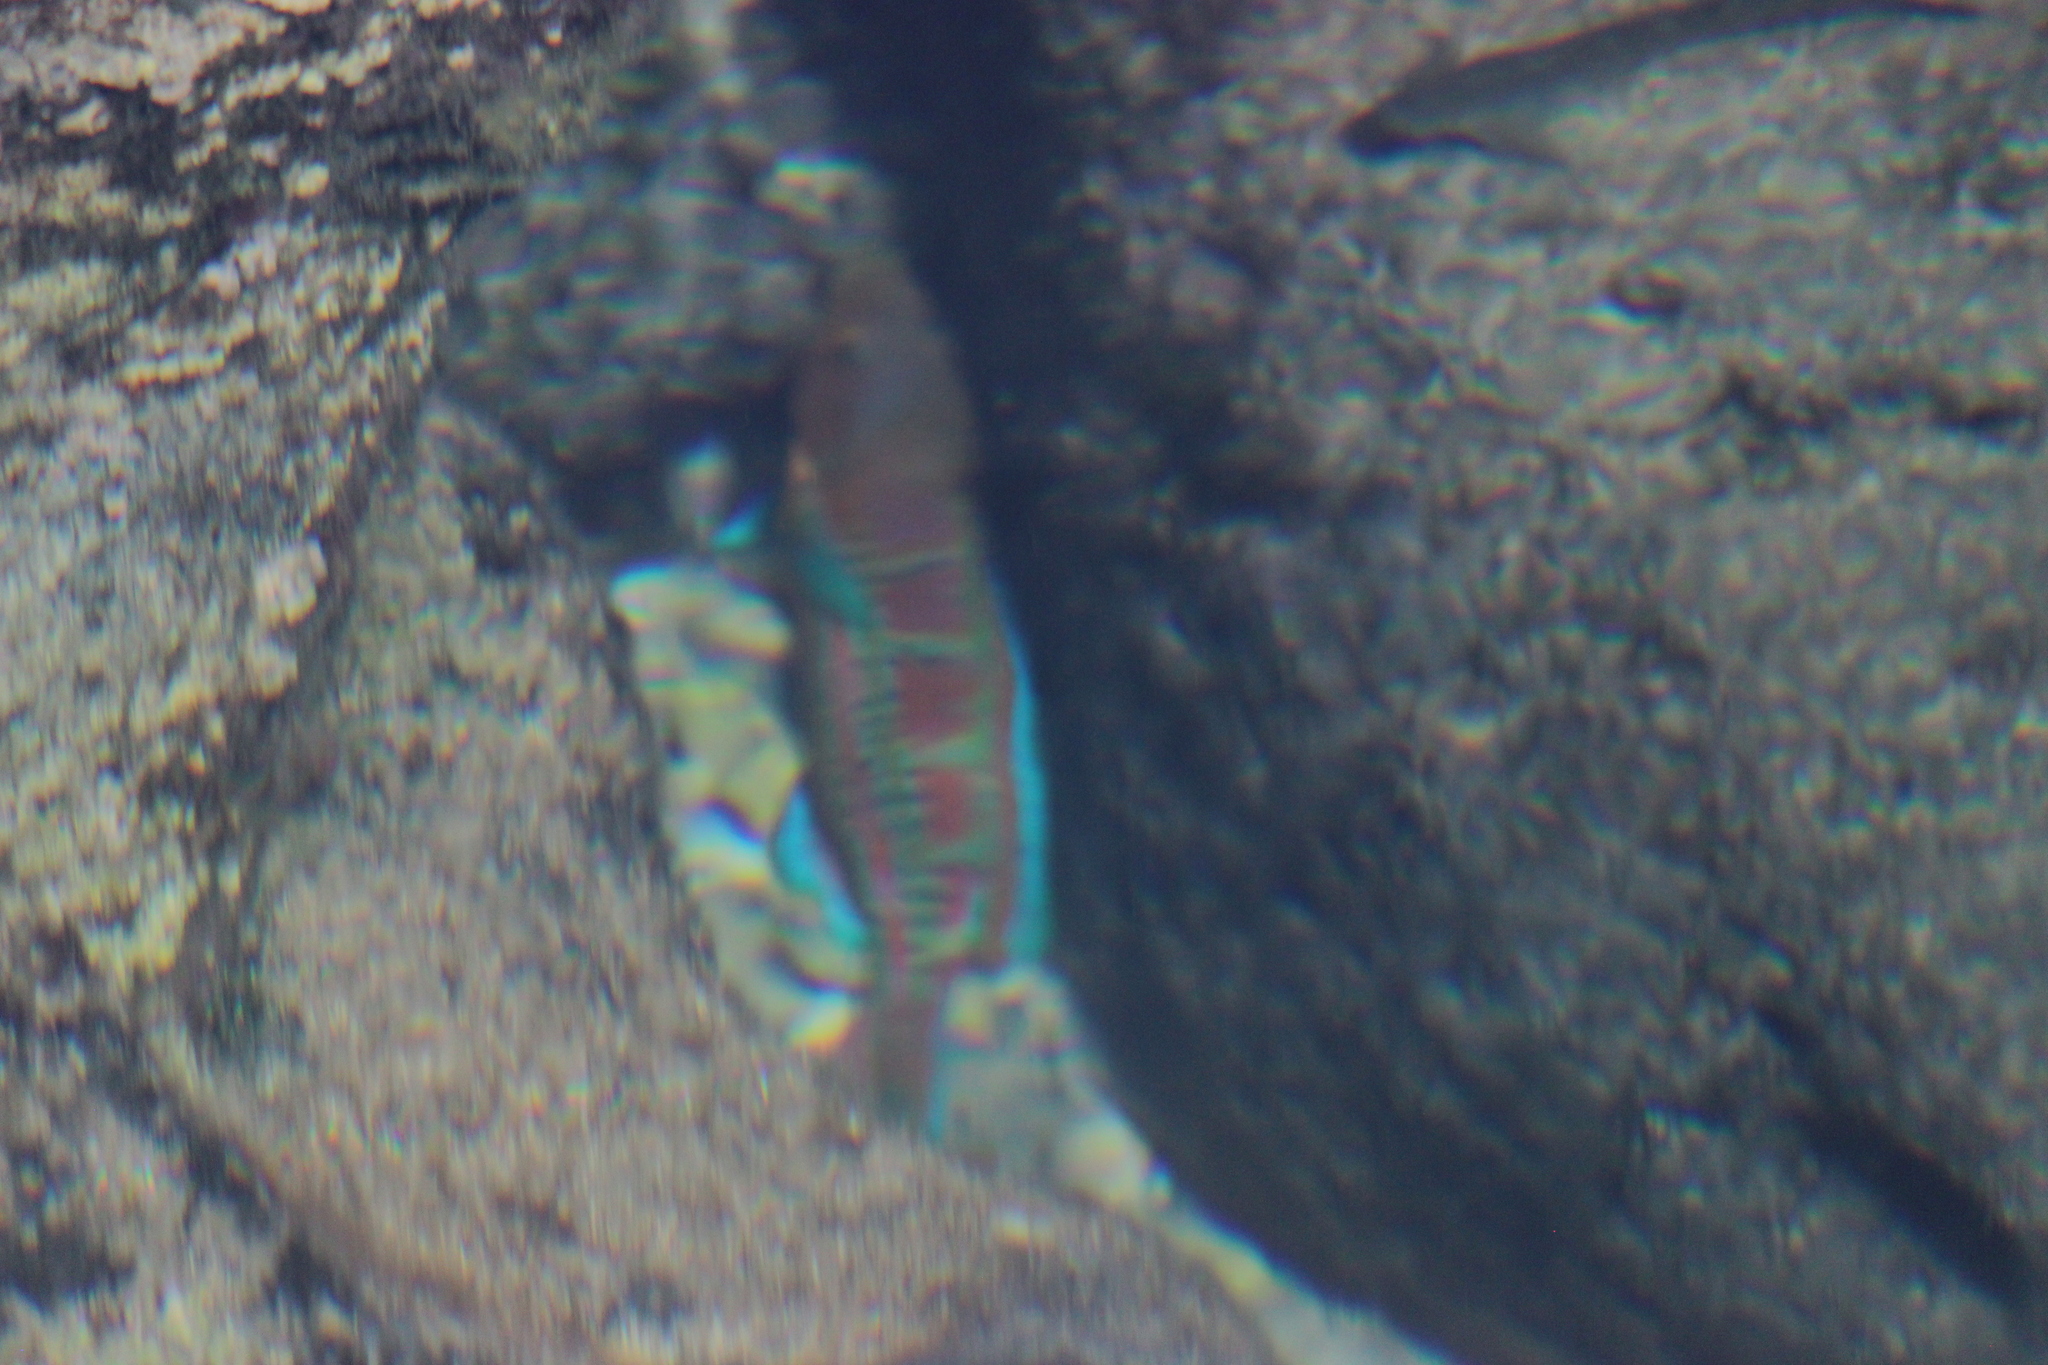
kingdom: Animalia
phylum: Chordata
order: Perciformes
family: Labridae
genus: Thalassoma
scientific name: Thalassoma trilobatum
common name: Christmas wrasse
